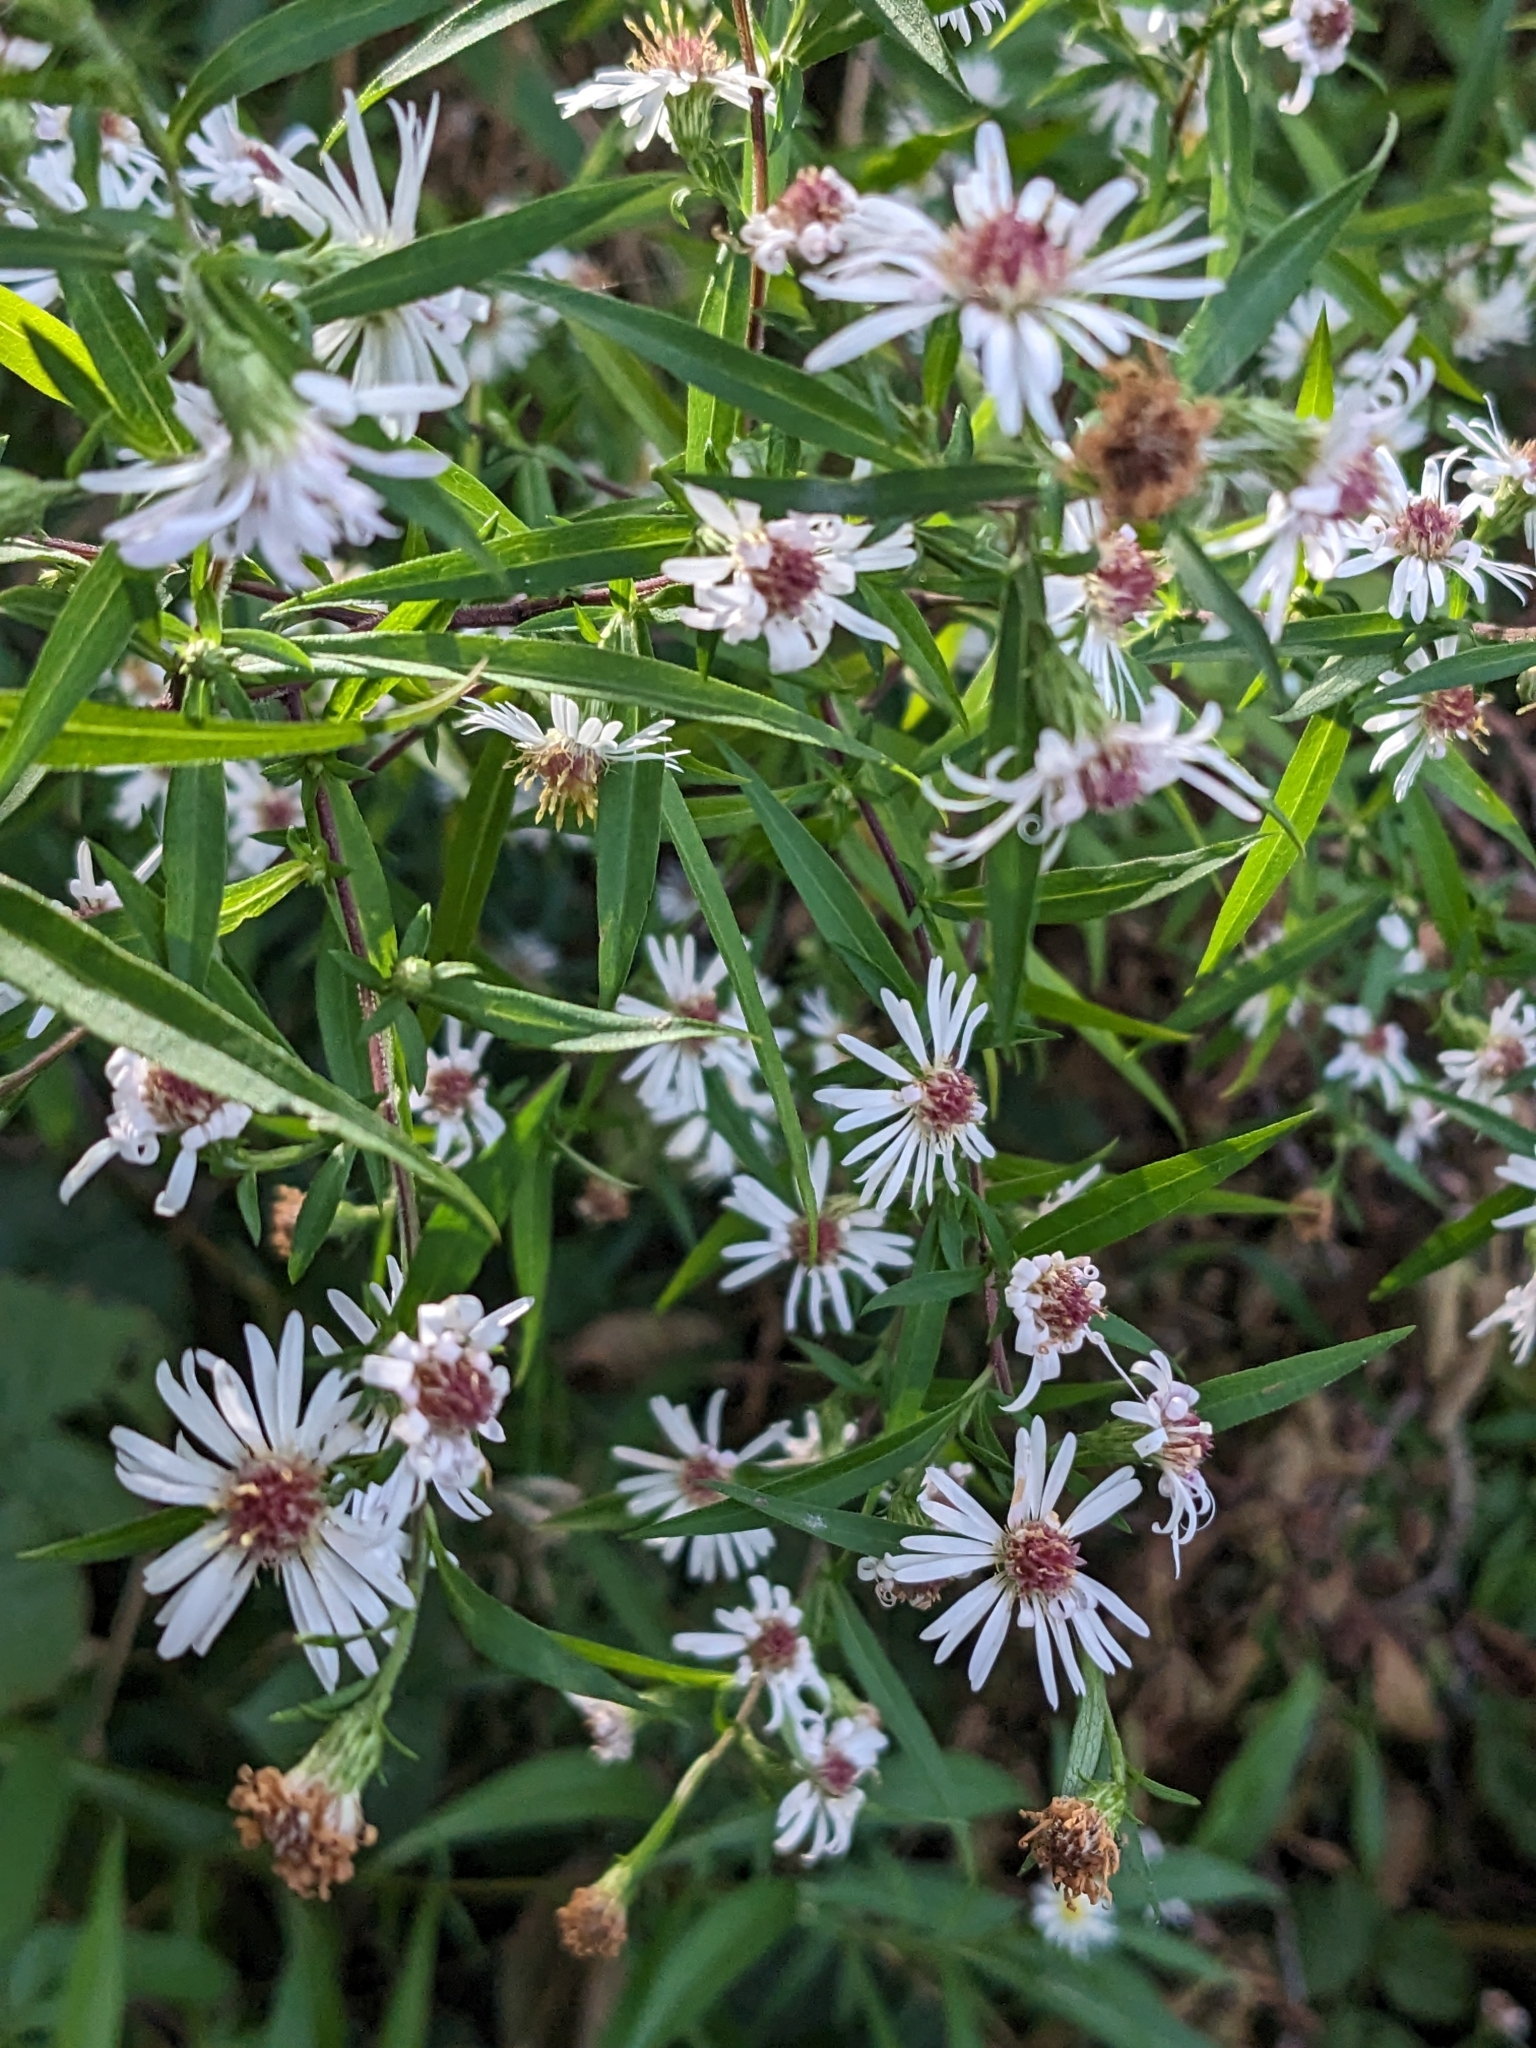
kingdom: Plantae
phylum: Tracheophyta
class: Magnoliopsida
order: Asterales
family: Asteraceae
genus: Symphyotrichum
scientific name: Symphyotrichum lanceolatum
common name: Panicled aster
